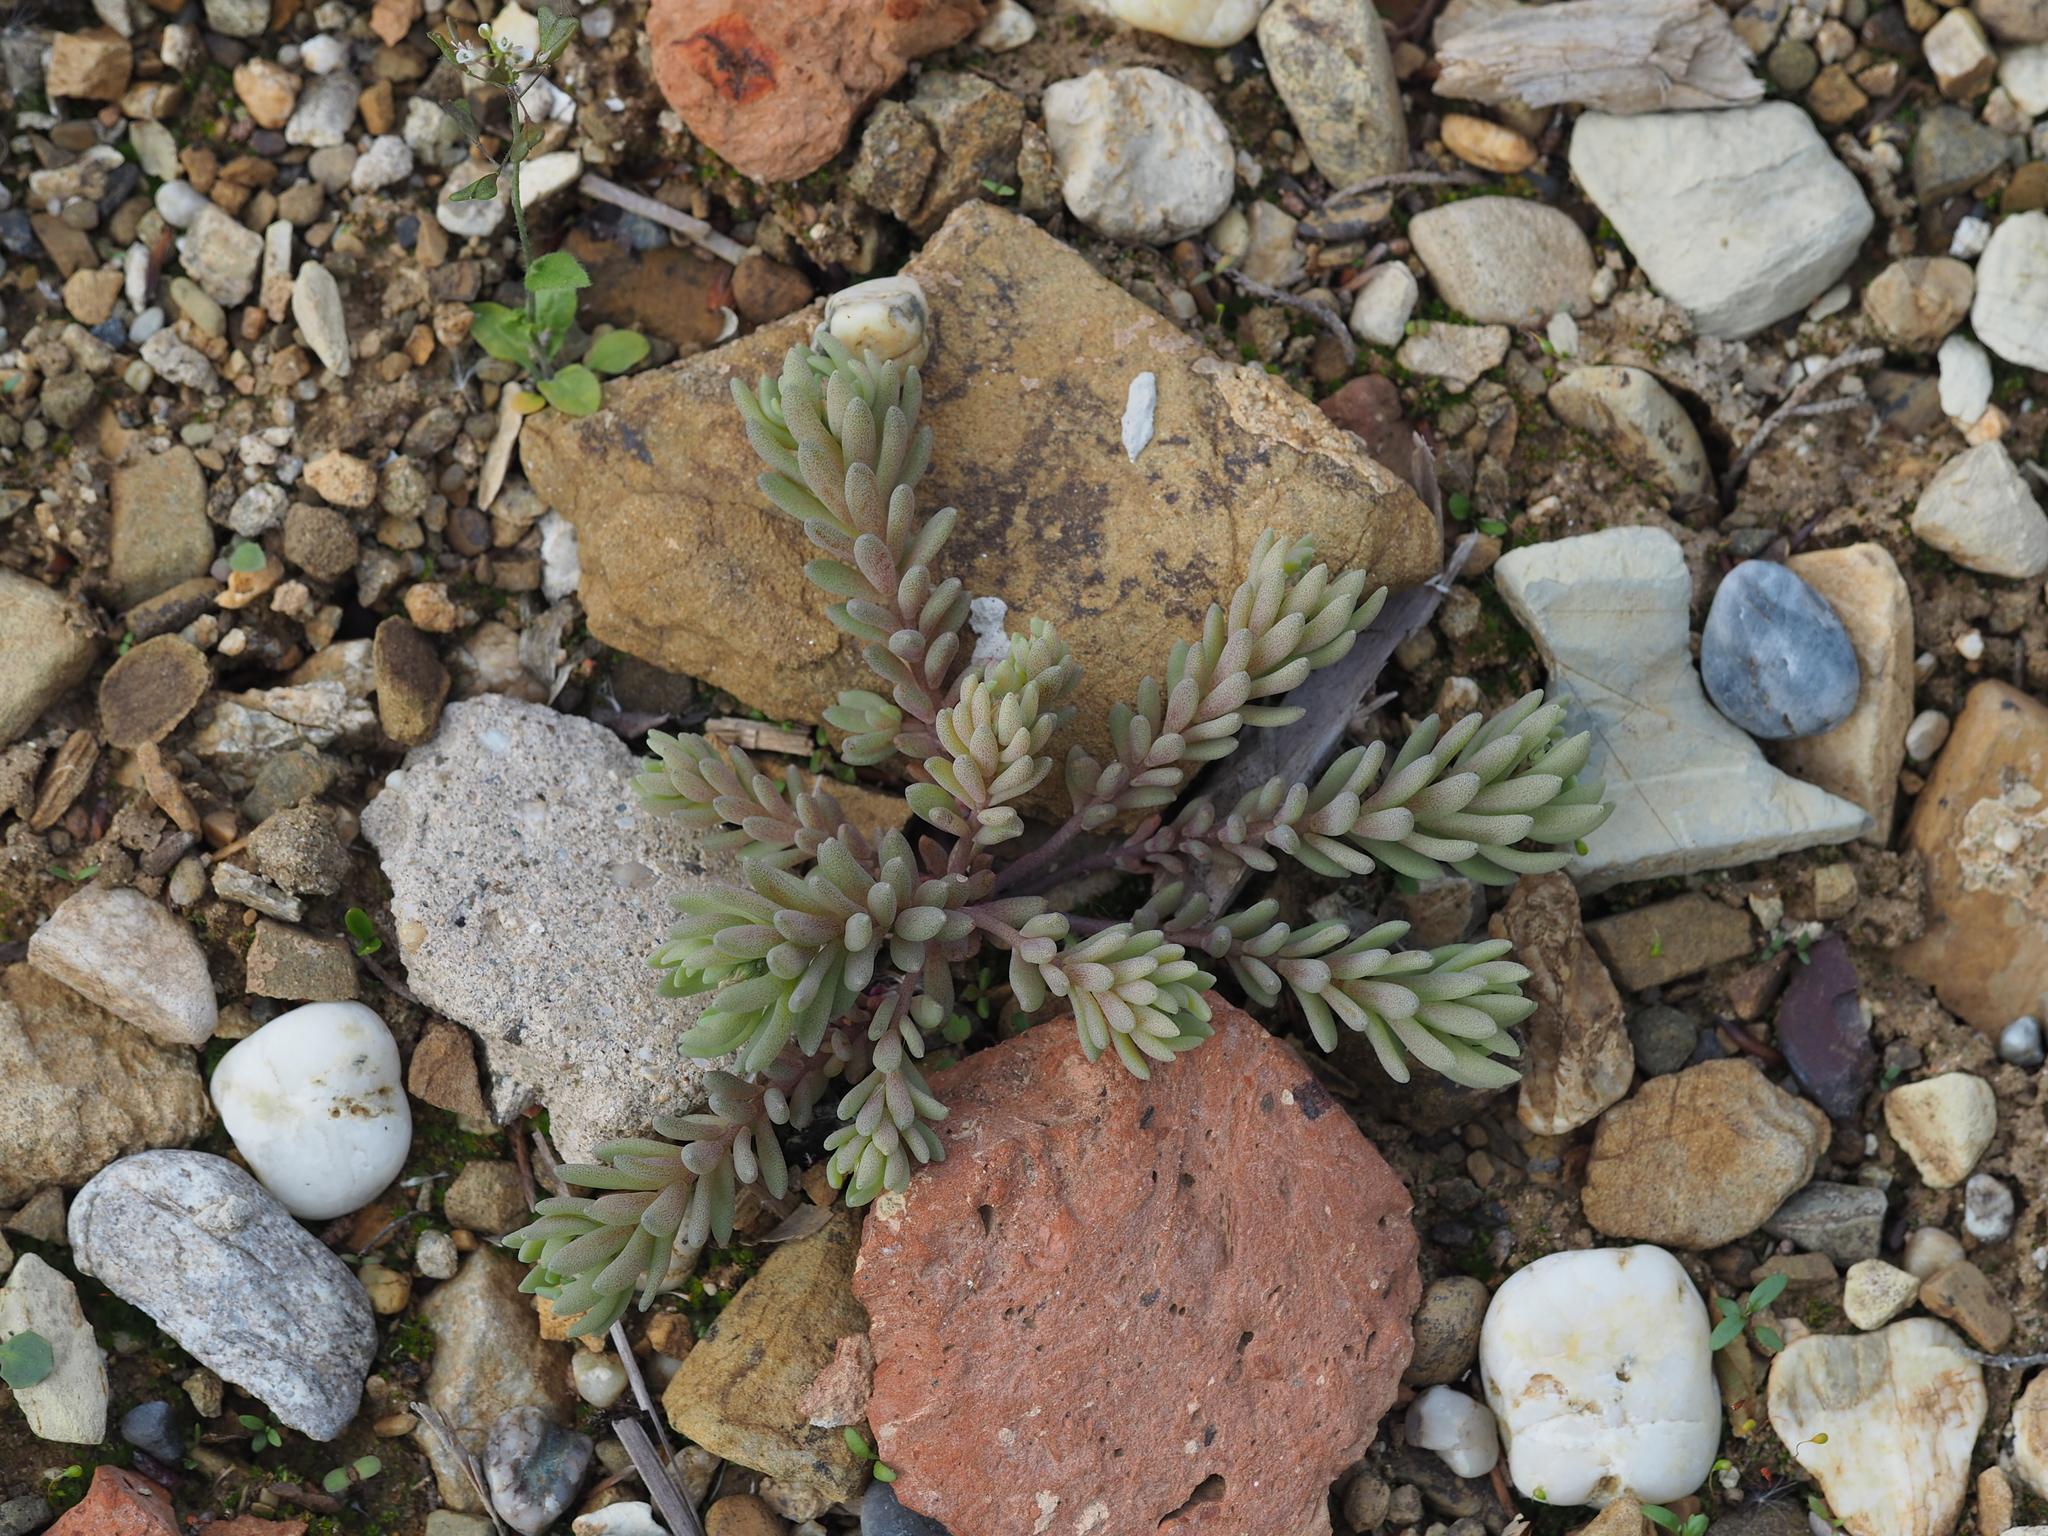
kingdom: Plantae
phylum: Tracheophyta
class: Magnoliopsida
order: Saxifragales
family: Crassulaceae
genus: Sedum
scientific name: Sedum hispanicum
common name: Spanish stonecrop
